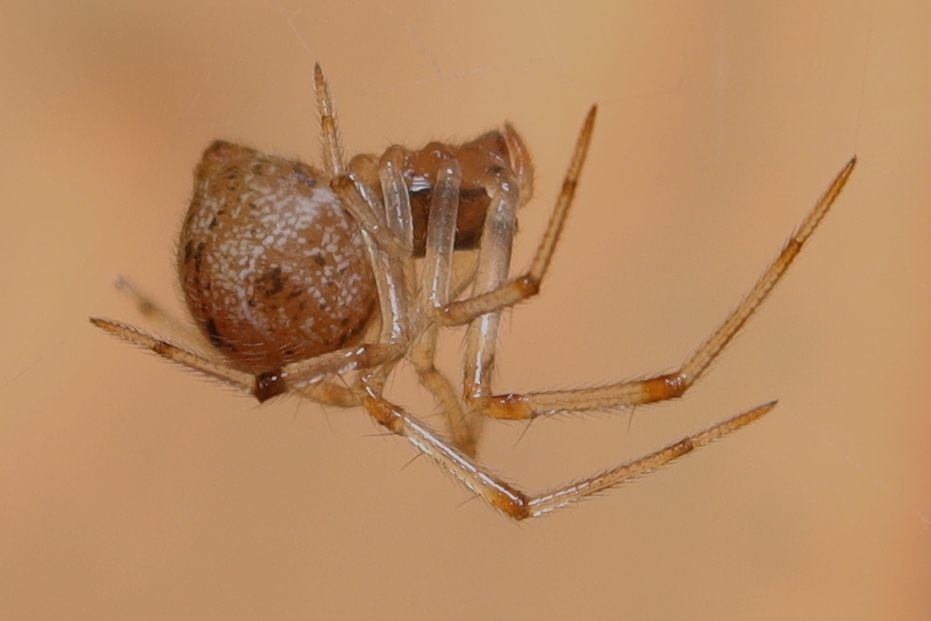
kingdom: Animalia
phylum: Arthropoda
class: Arachnida
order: Araneae
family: Theridiidae
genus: Parasteatoda
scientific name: Parasteatoda tepidariorum
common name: Common house spider
